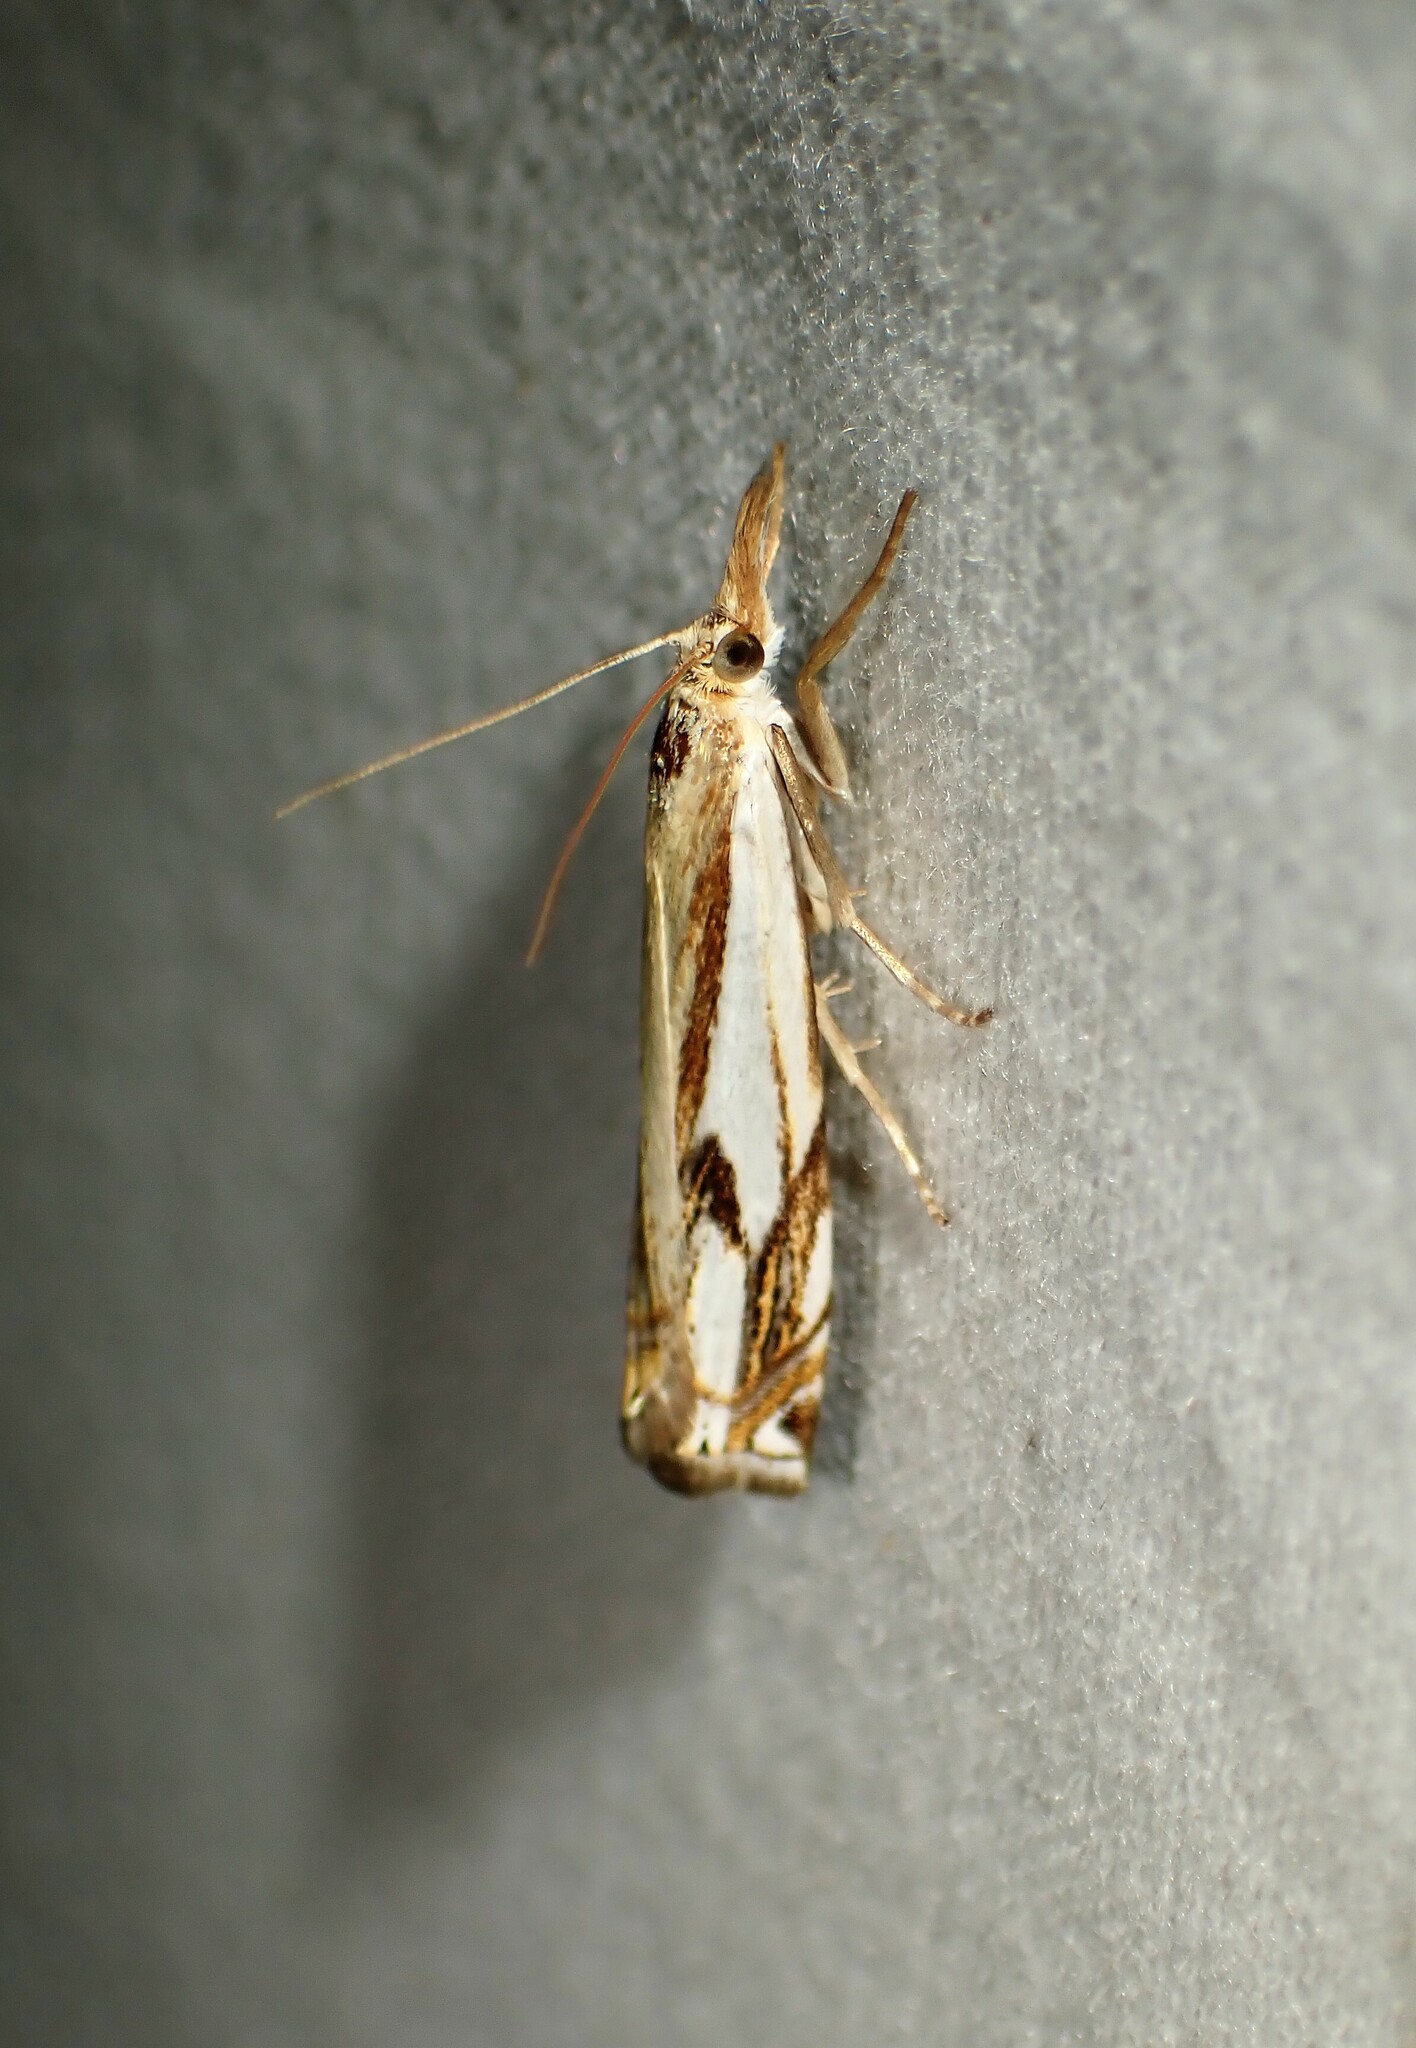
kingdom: Animalia
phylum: Arthropoda
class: Insecta
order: Lepidoptera
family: Crambidae
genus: Crambus
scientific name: Crambus agitatellus
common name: Double-banded grass-veneer
